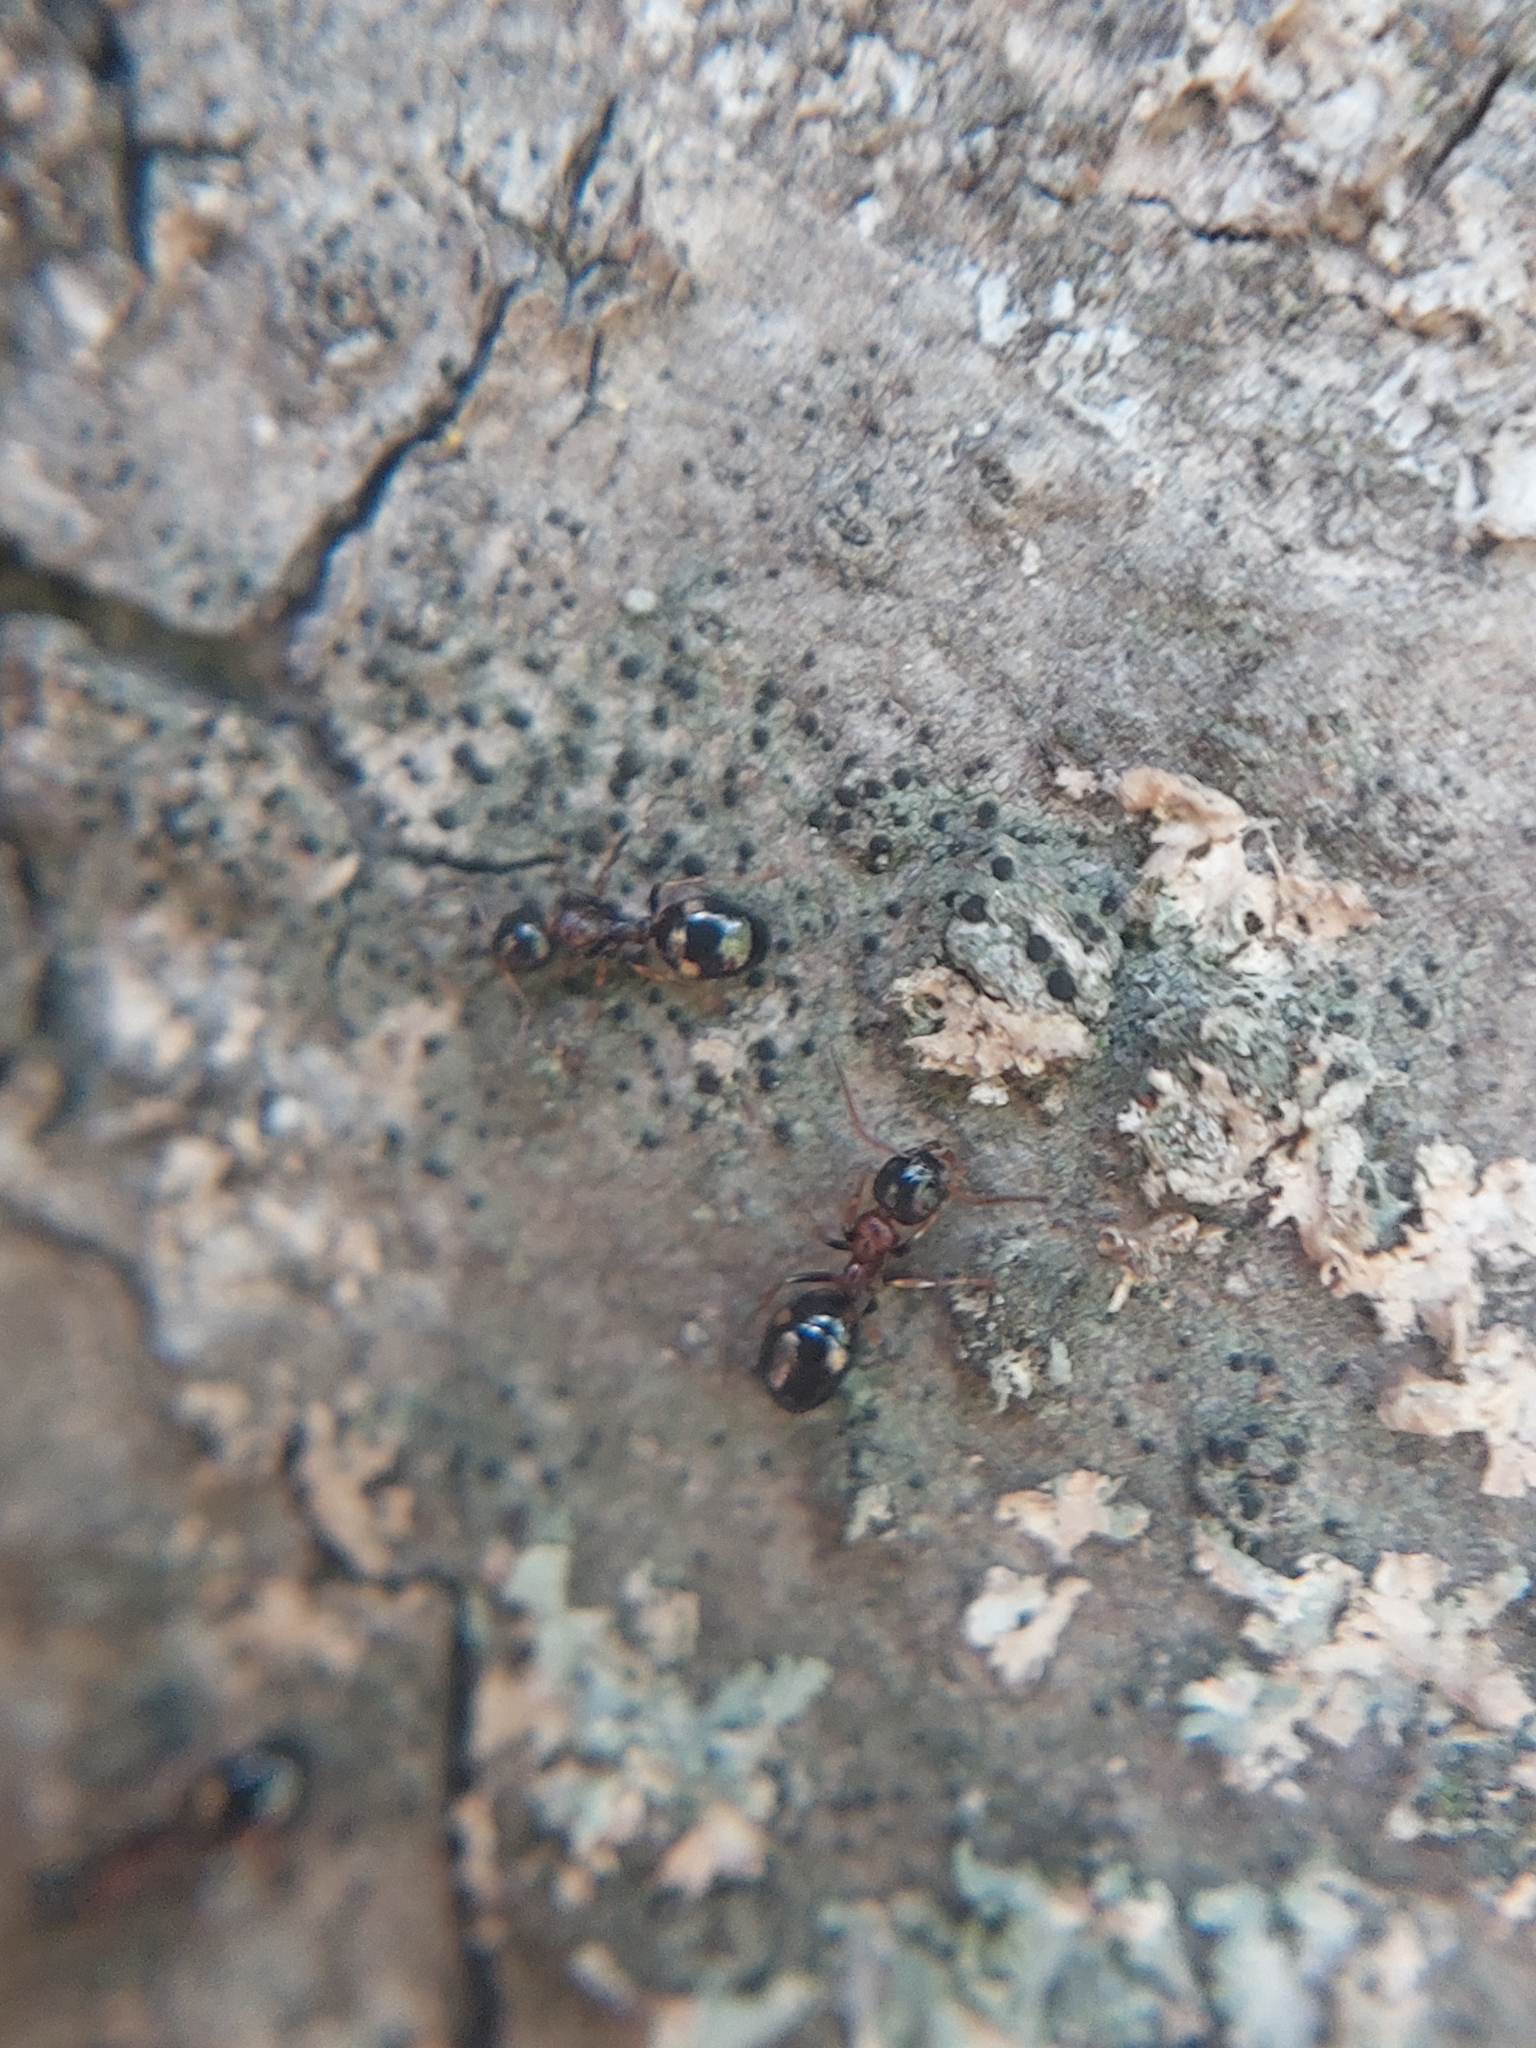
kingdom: Animalia
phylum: Arthropoda
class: Insecta
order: Hymenoptera
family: Formicidae
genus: Dolichoderus
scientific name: Dolichoderus quadripunctatus
